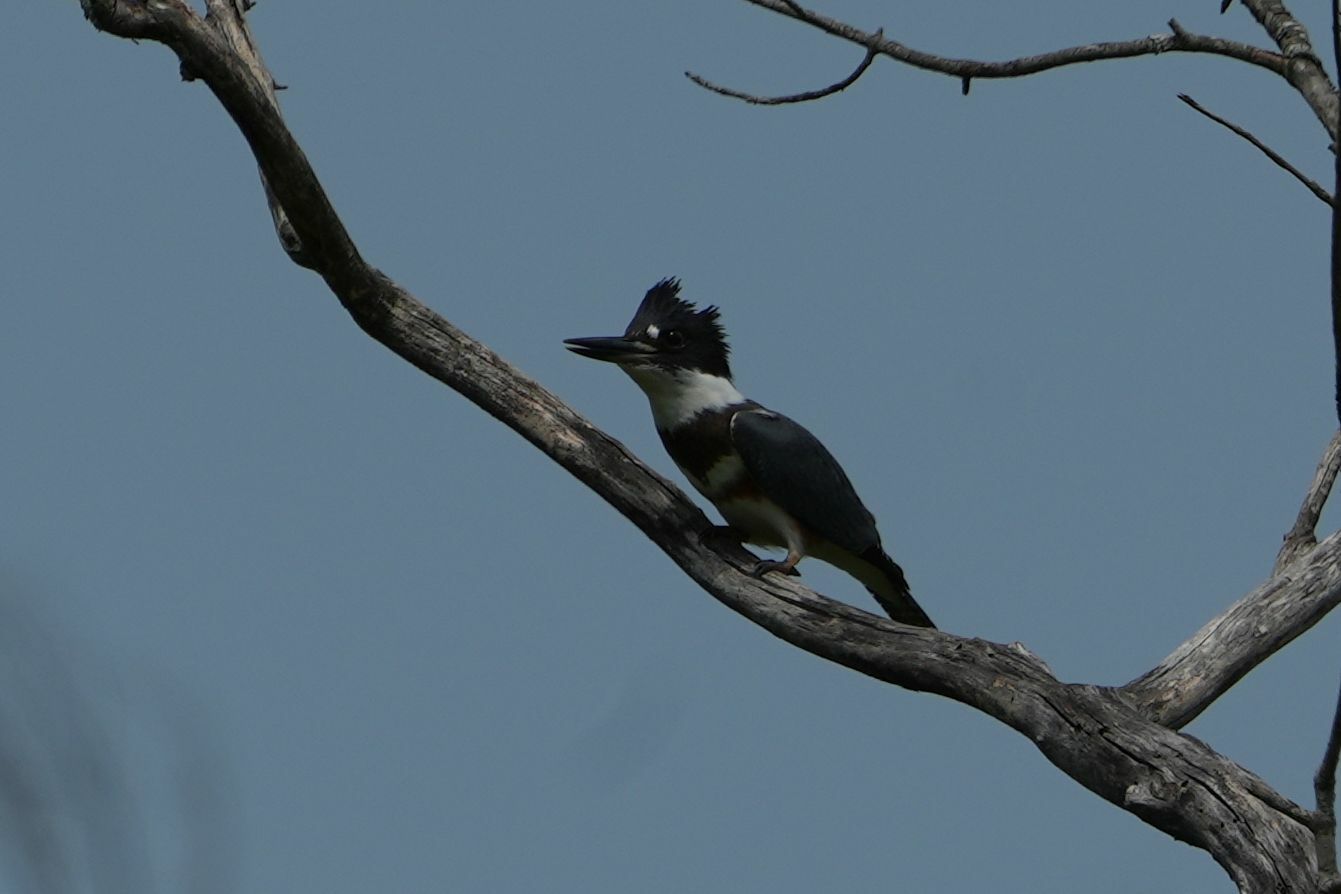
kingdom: Animalia
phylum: Chordata
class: Aves
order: Coraciiformes
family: Alcedinidae
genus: Megaceryle
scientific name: Megaceryle alcyon
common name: Belted kingfisher
